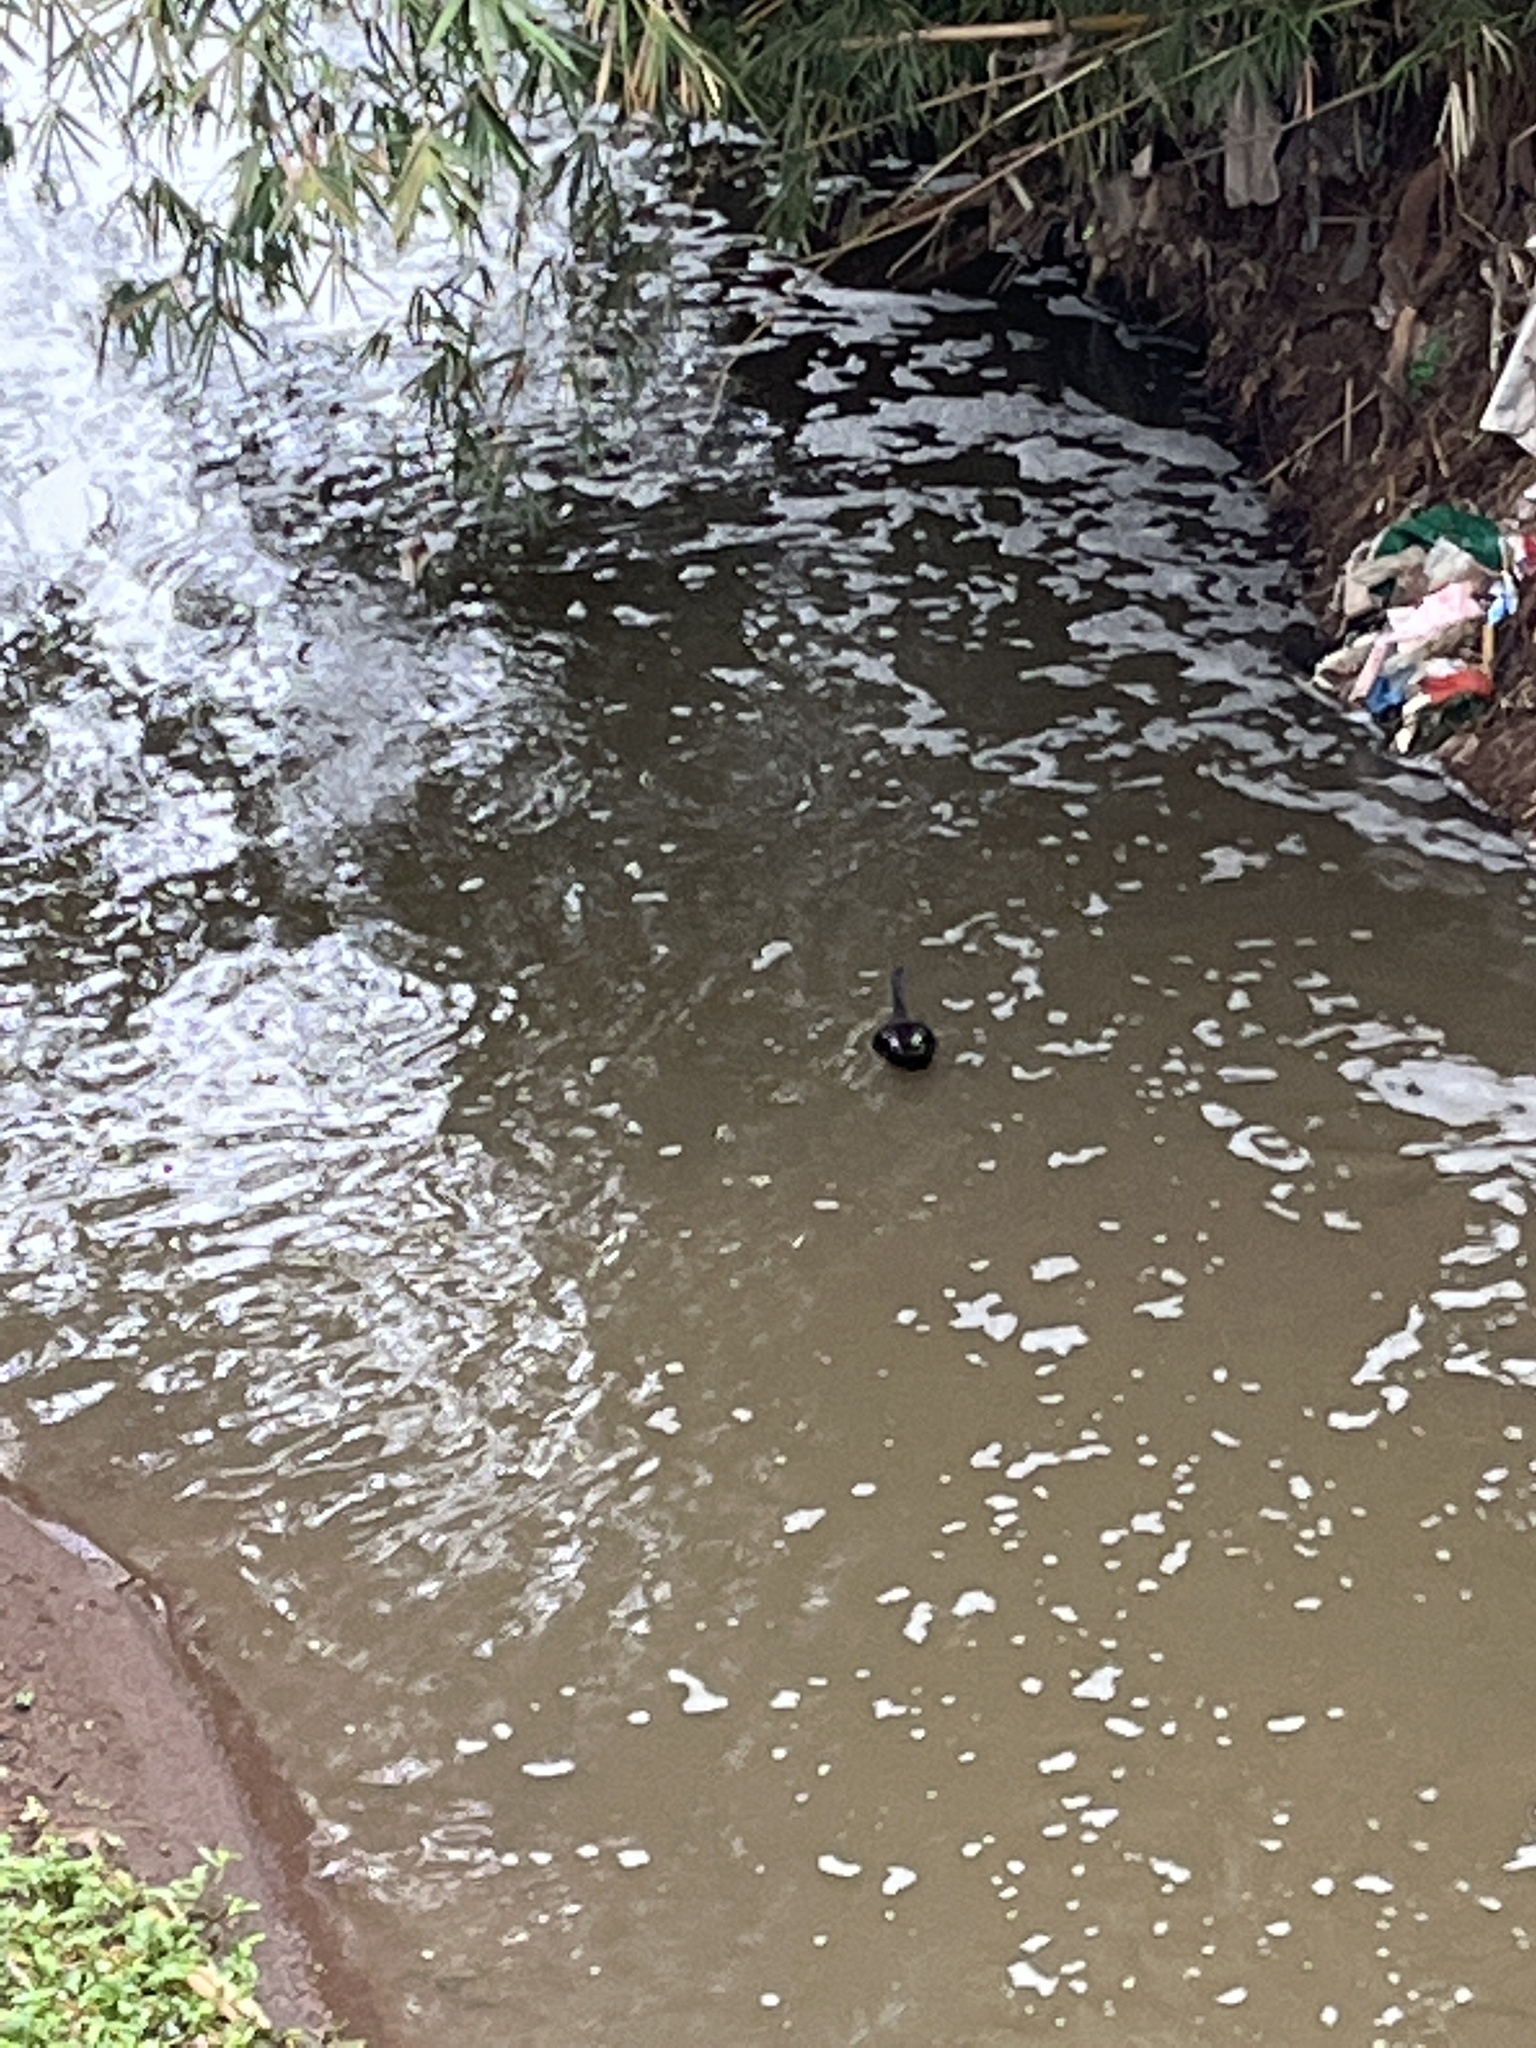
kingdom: Animalia
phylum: Chordata
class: Aves
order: Anseriformes
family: Anatidae
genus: Anas
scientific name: Anas sparsa
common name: African black duck
